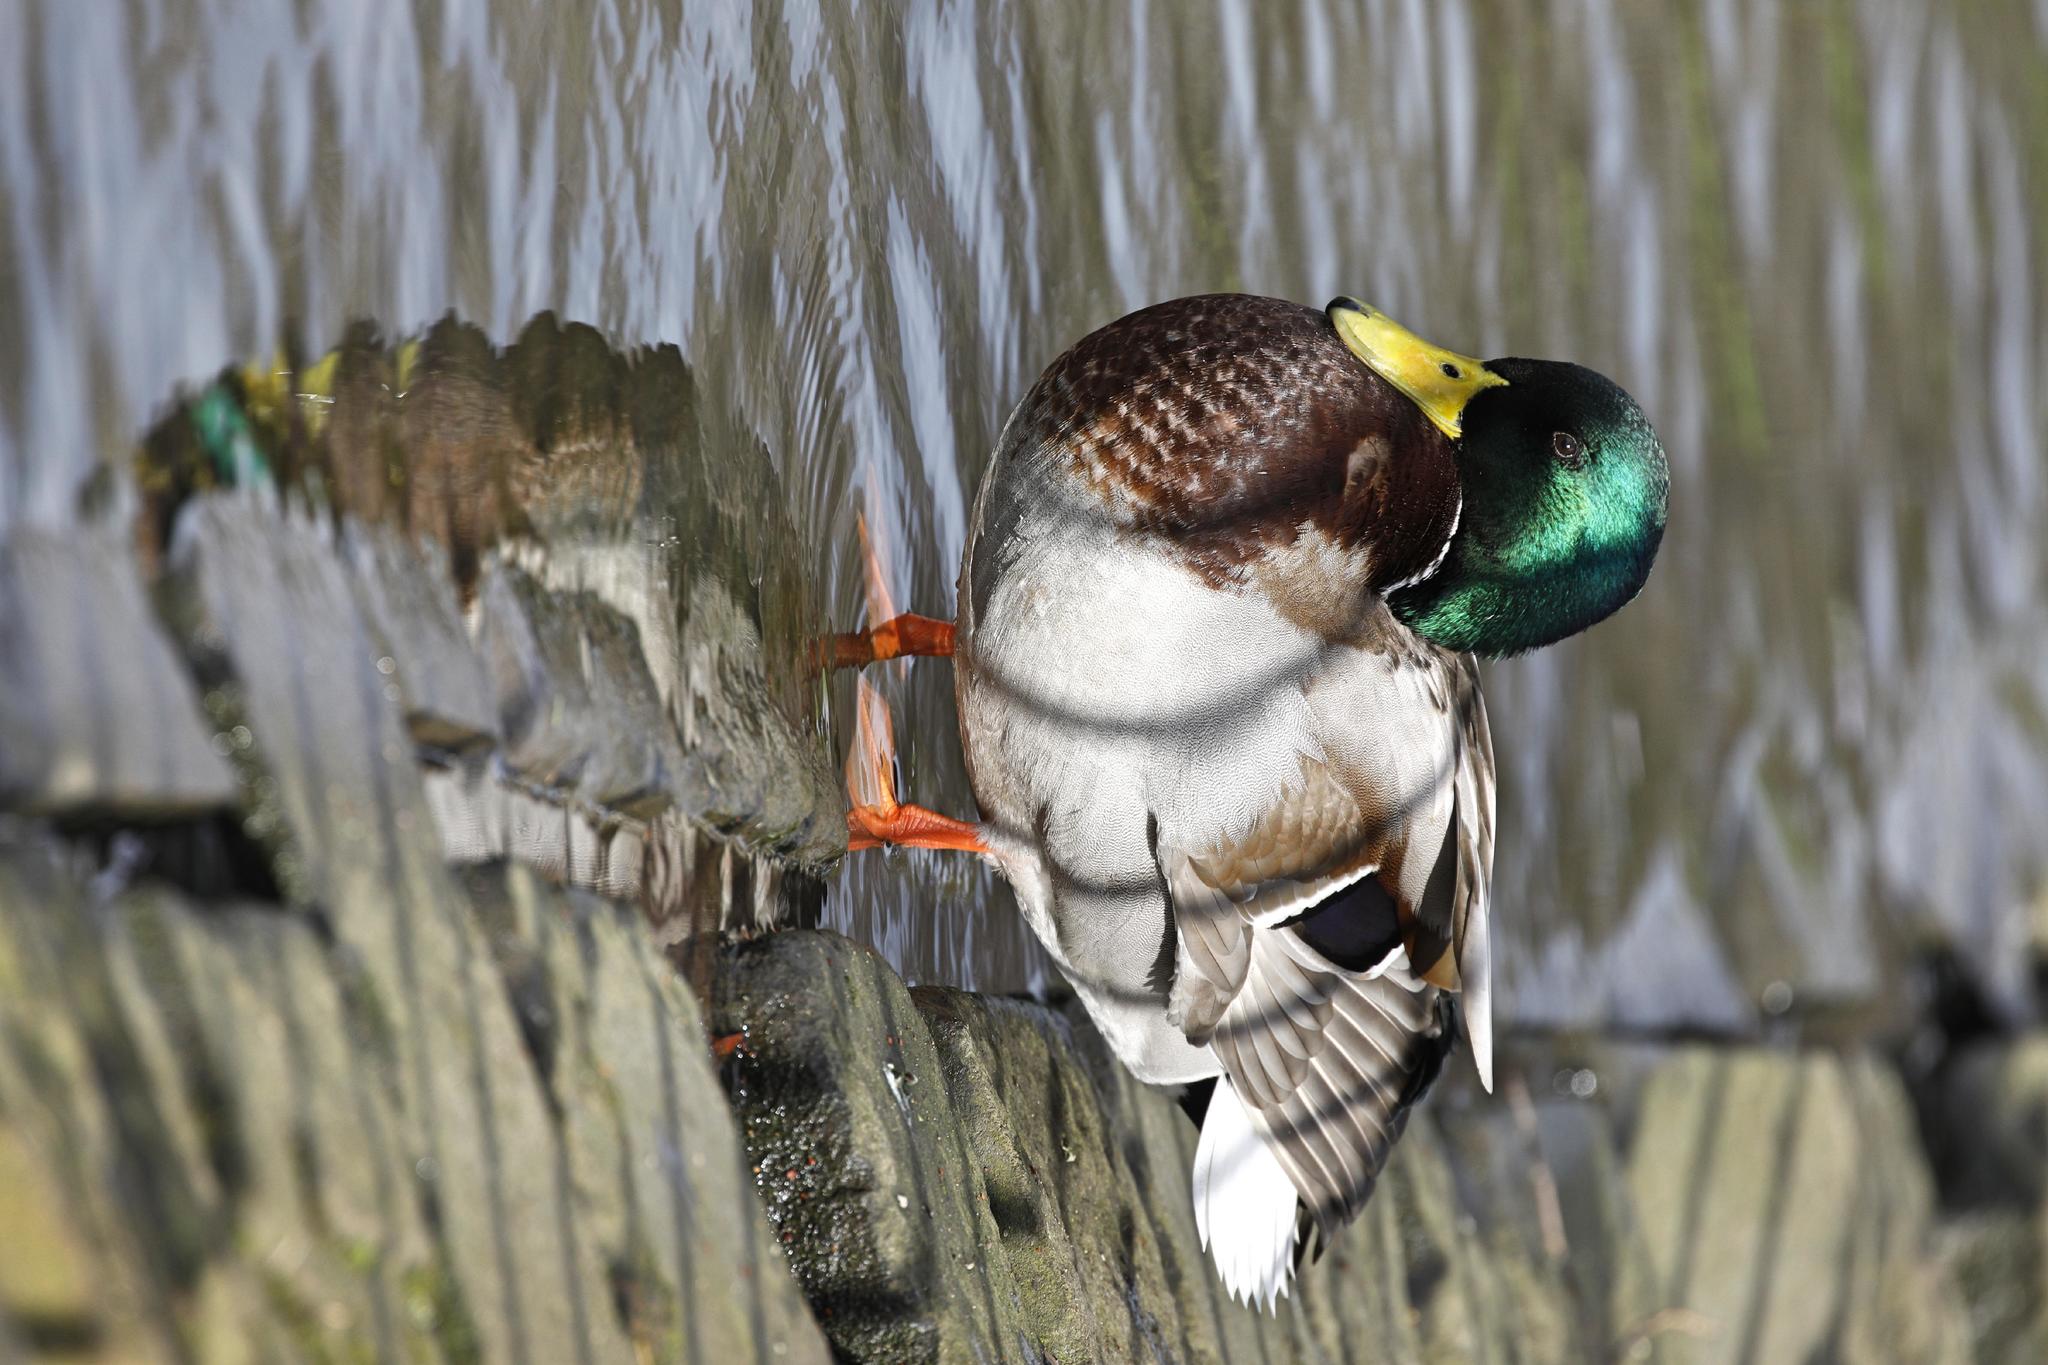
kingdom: Animalia
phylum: Chordata
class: Aves
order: Anseriformes
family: Anatidae
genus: Anas
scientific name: Anas platyrhynchos
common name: Mallard
